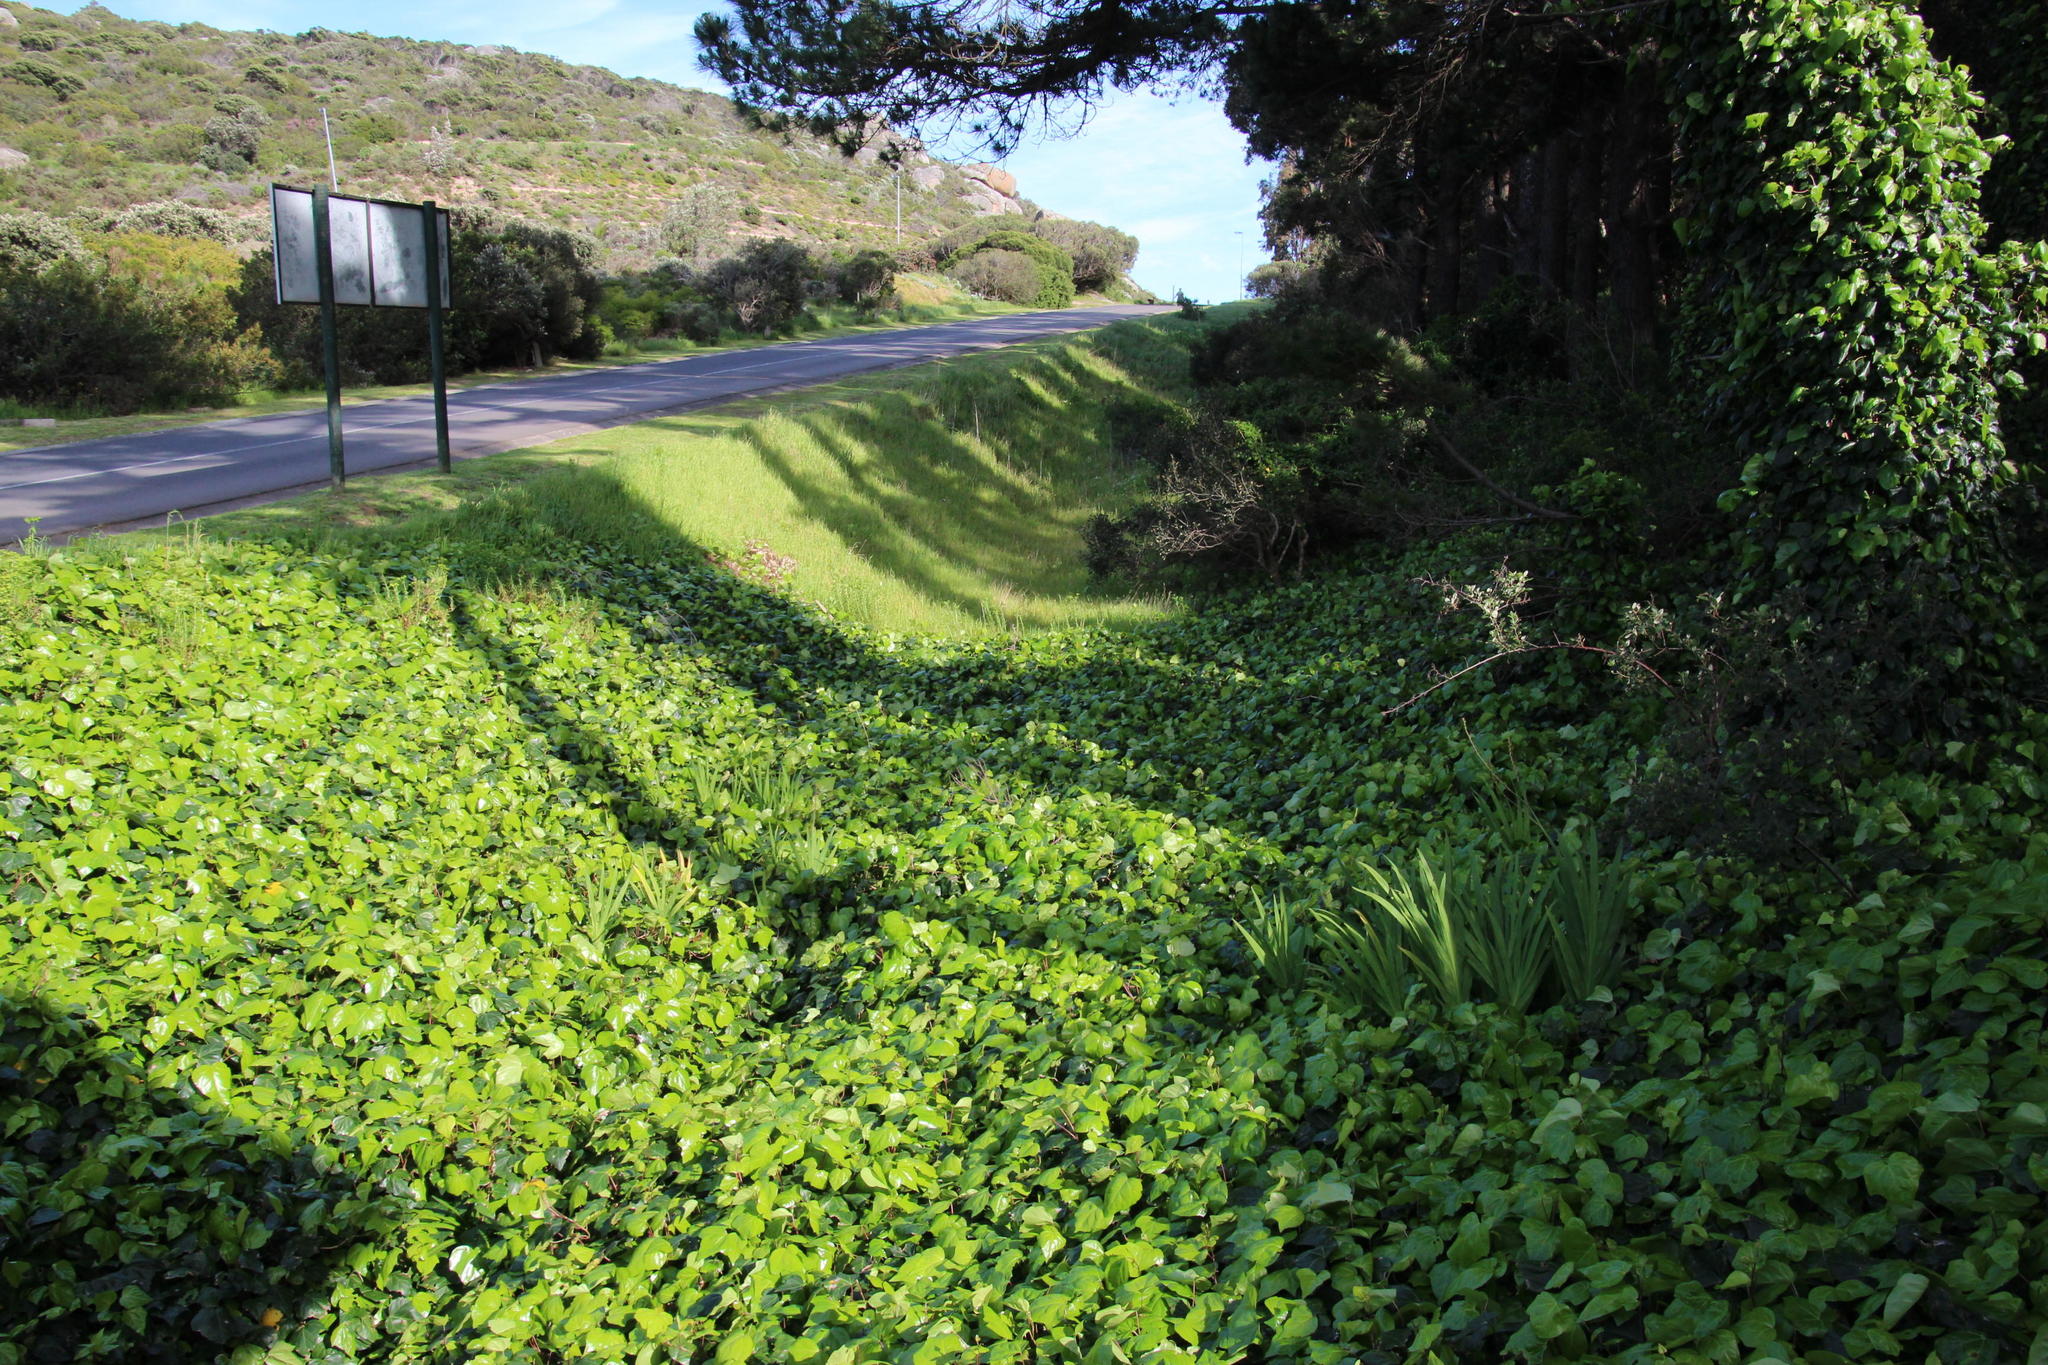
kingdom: Plantae
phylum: Tracheophyta
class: Magnoliopsida
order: Apiales
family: Araliaceae
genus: Hedera
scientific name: Hedera canariensis
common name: Madeira ivy
